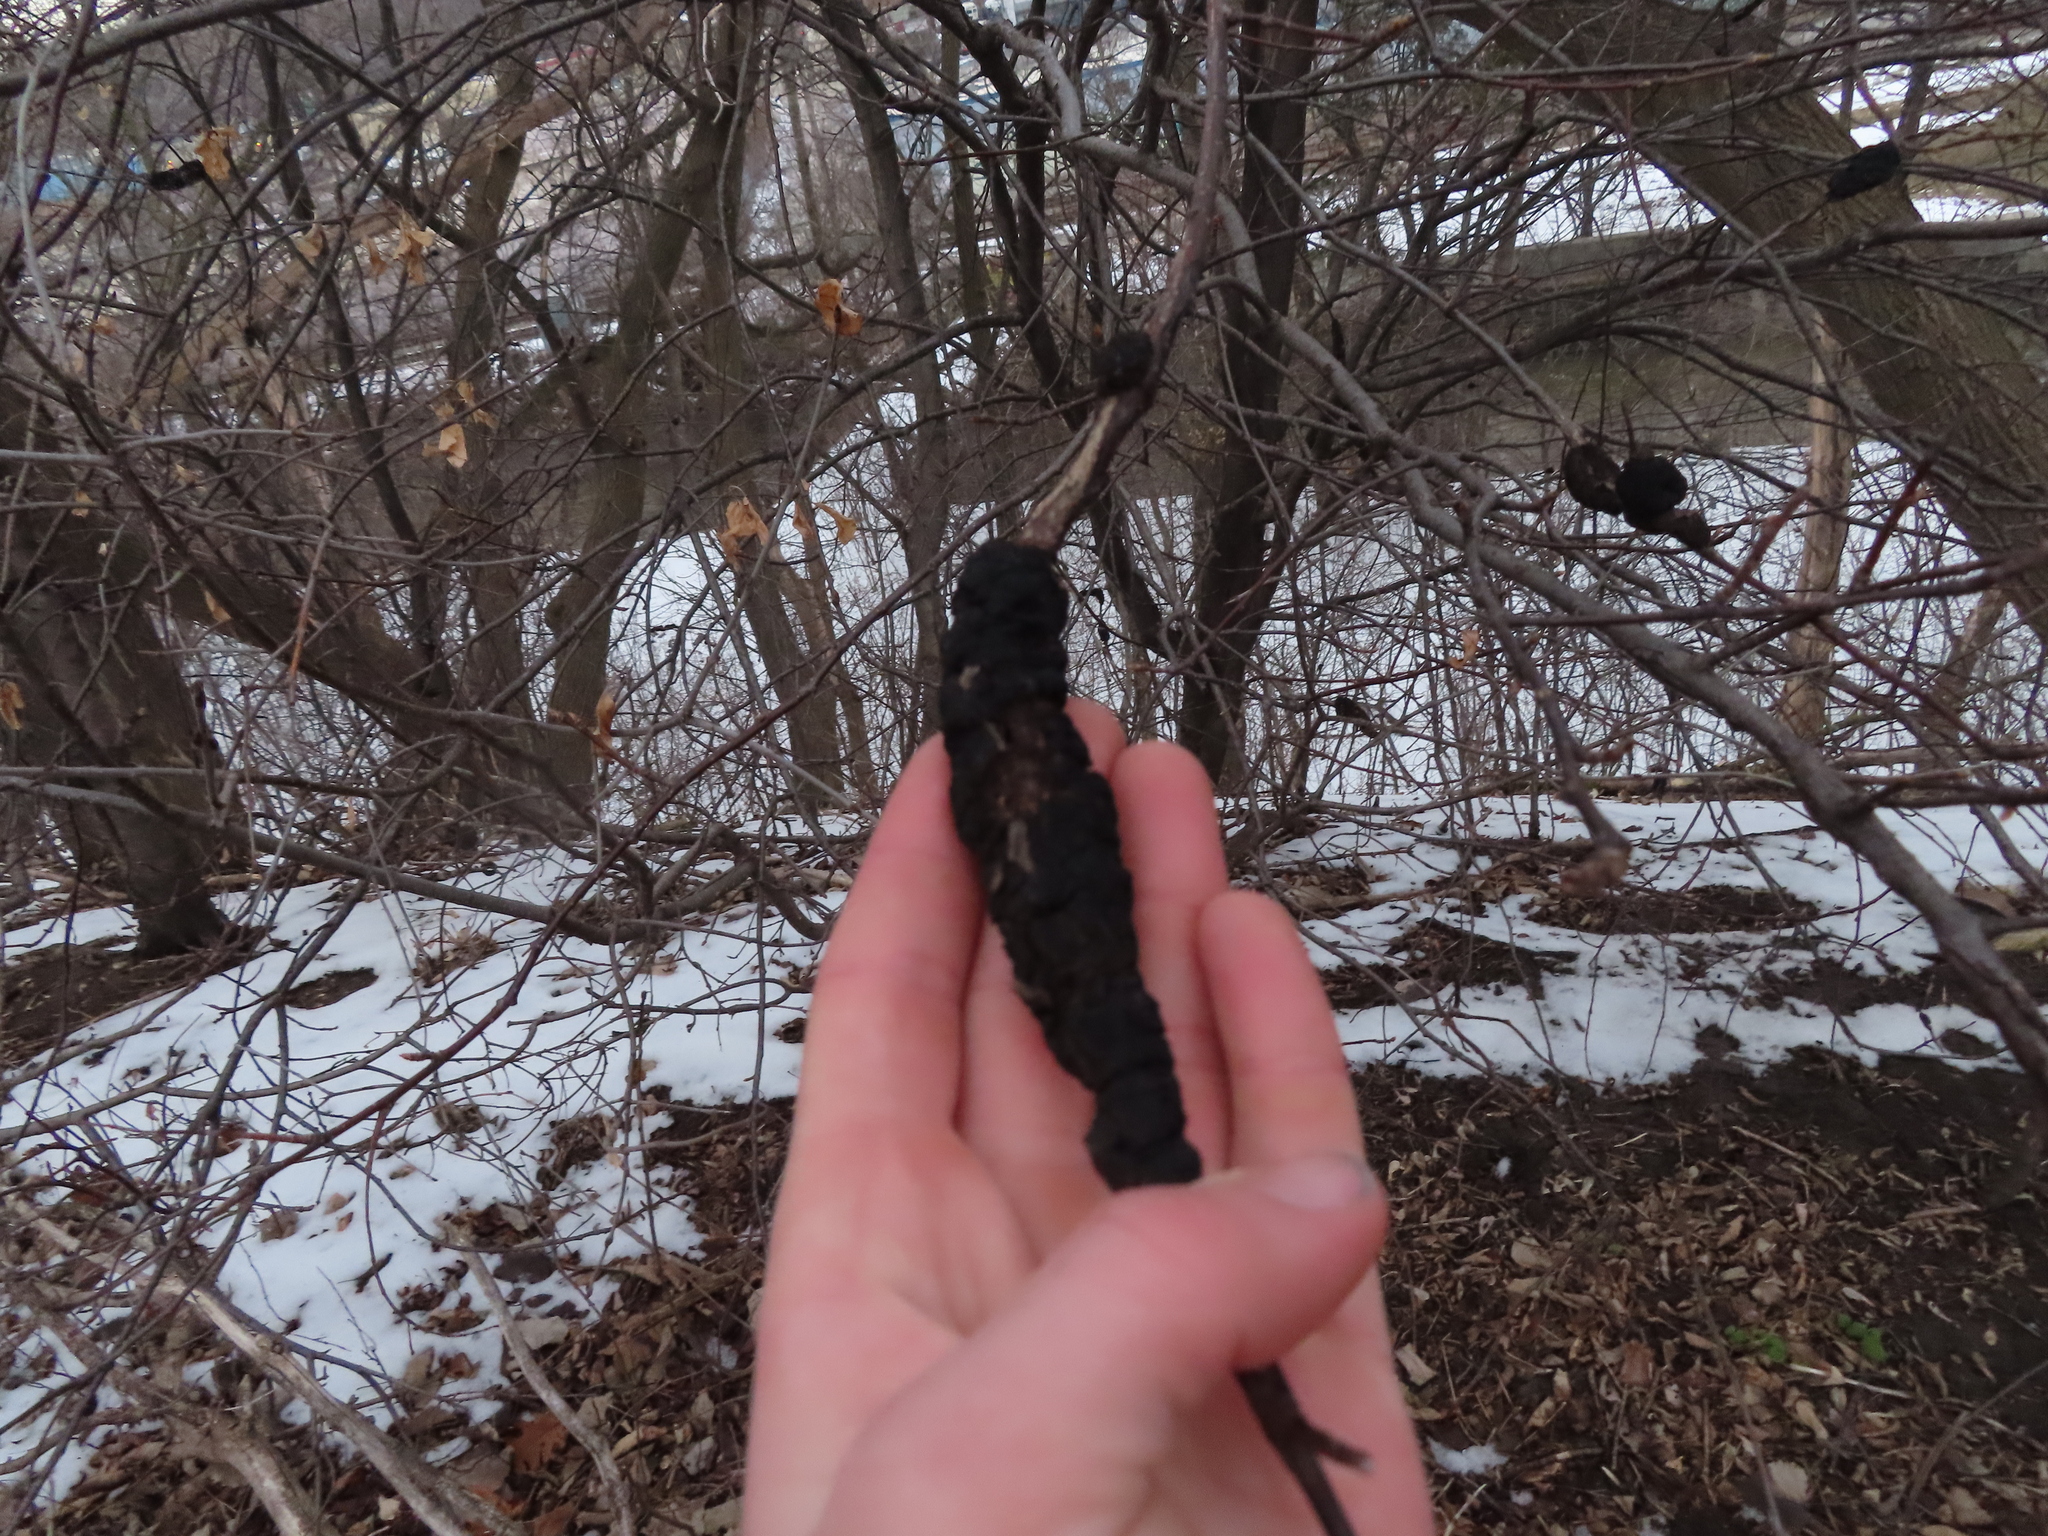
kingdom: Fungi
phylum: Ascomycota
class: Dothideomycetes
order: Venturiales
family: Venturiaceae
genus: Apiosporina
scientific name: Apiosporina morbosa
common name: Black knot
